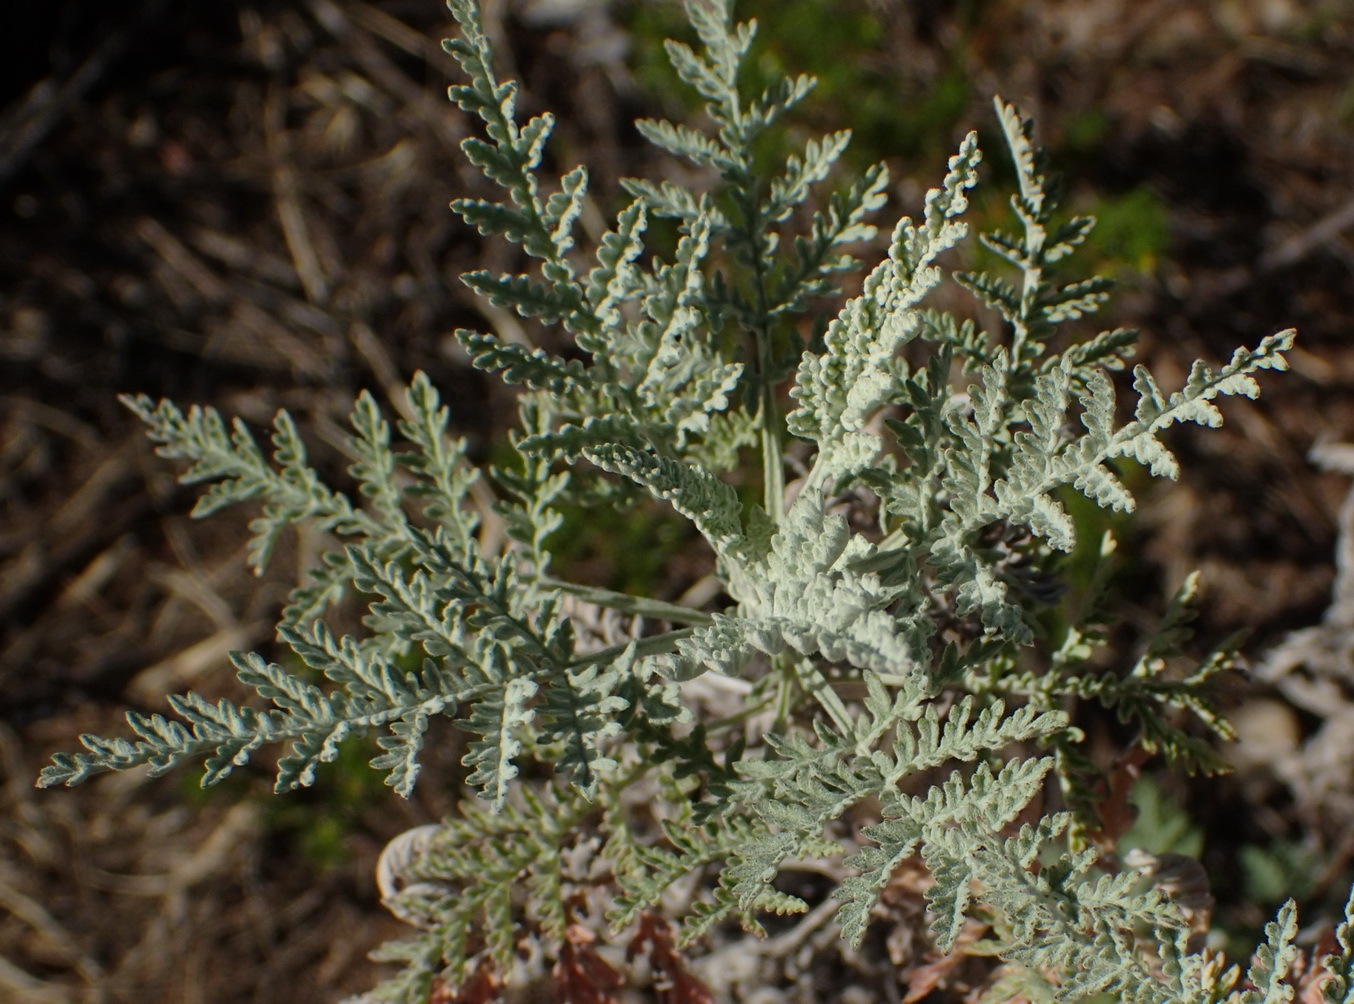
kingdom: Plantae
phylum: Tracheophyta
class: Magnoliopsida
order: Asterales
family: Asteraceae
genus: Artemisia
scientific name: Artemisia afra
